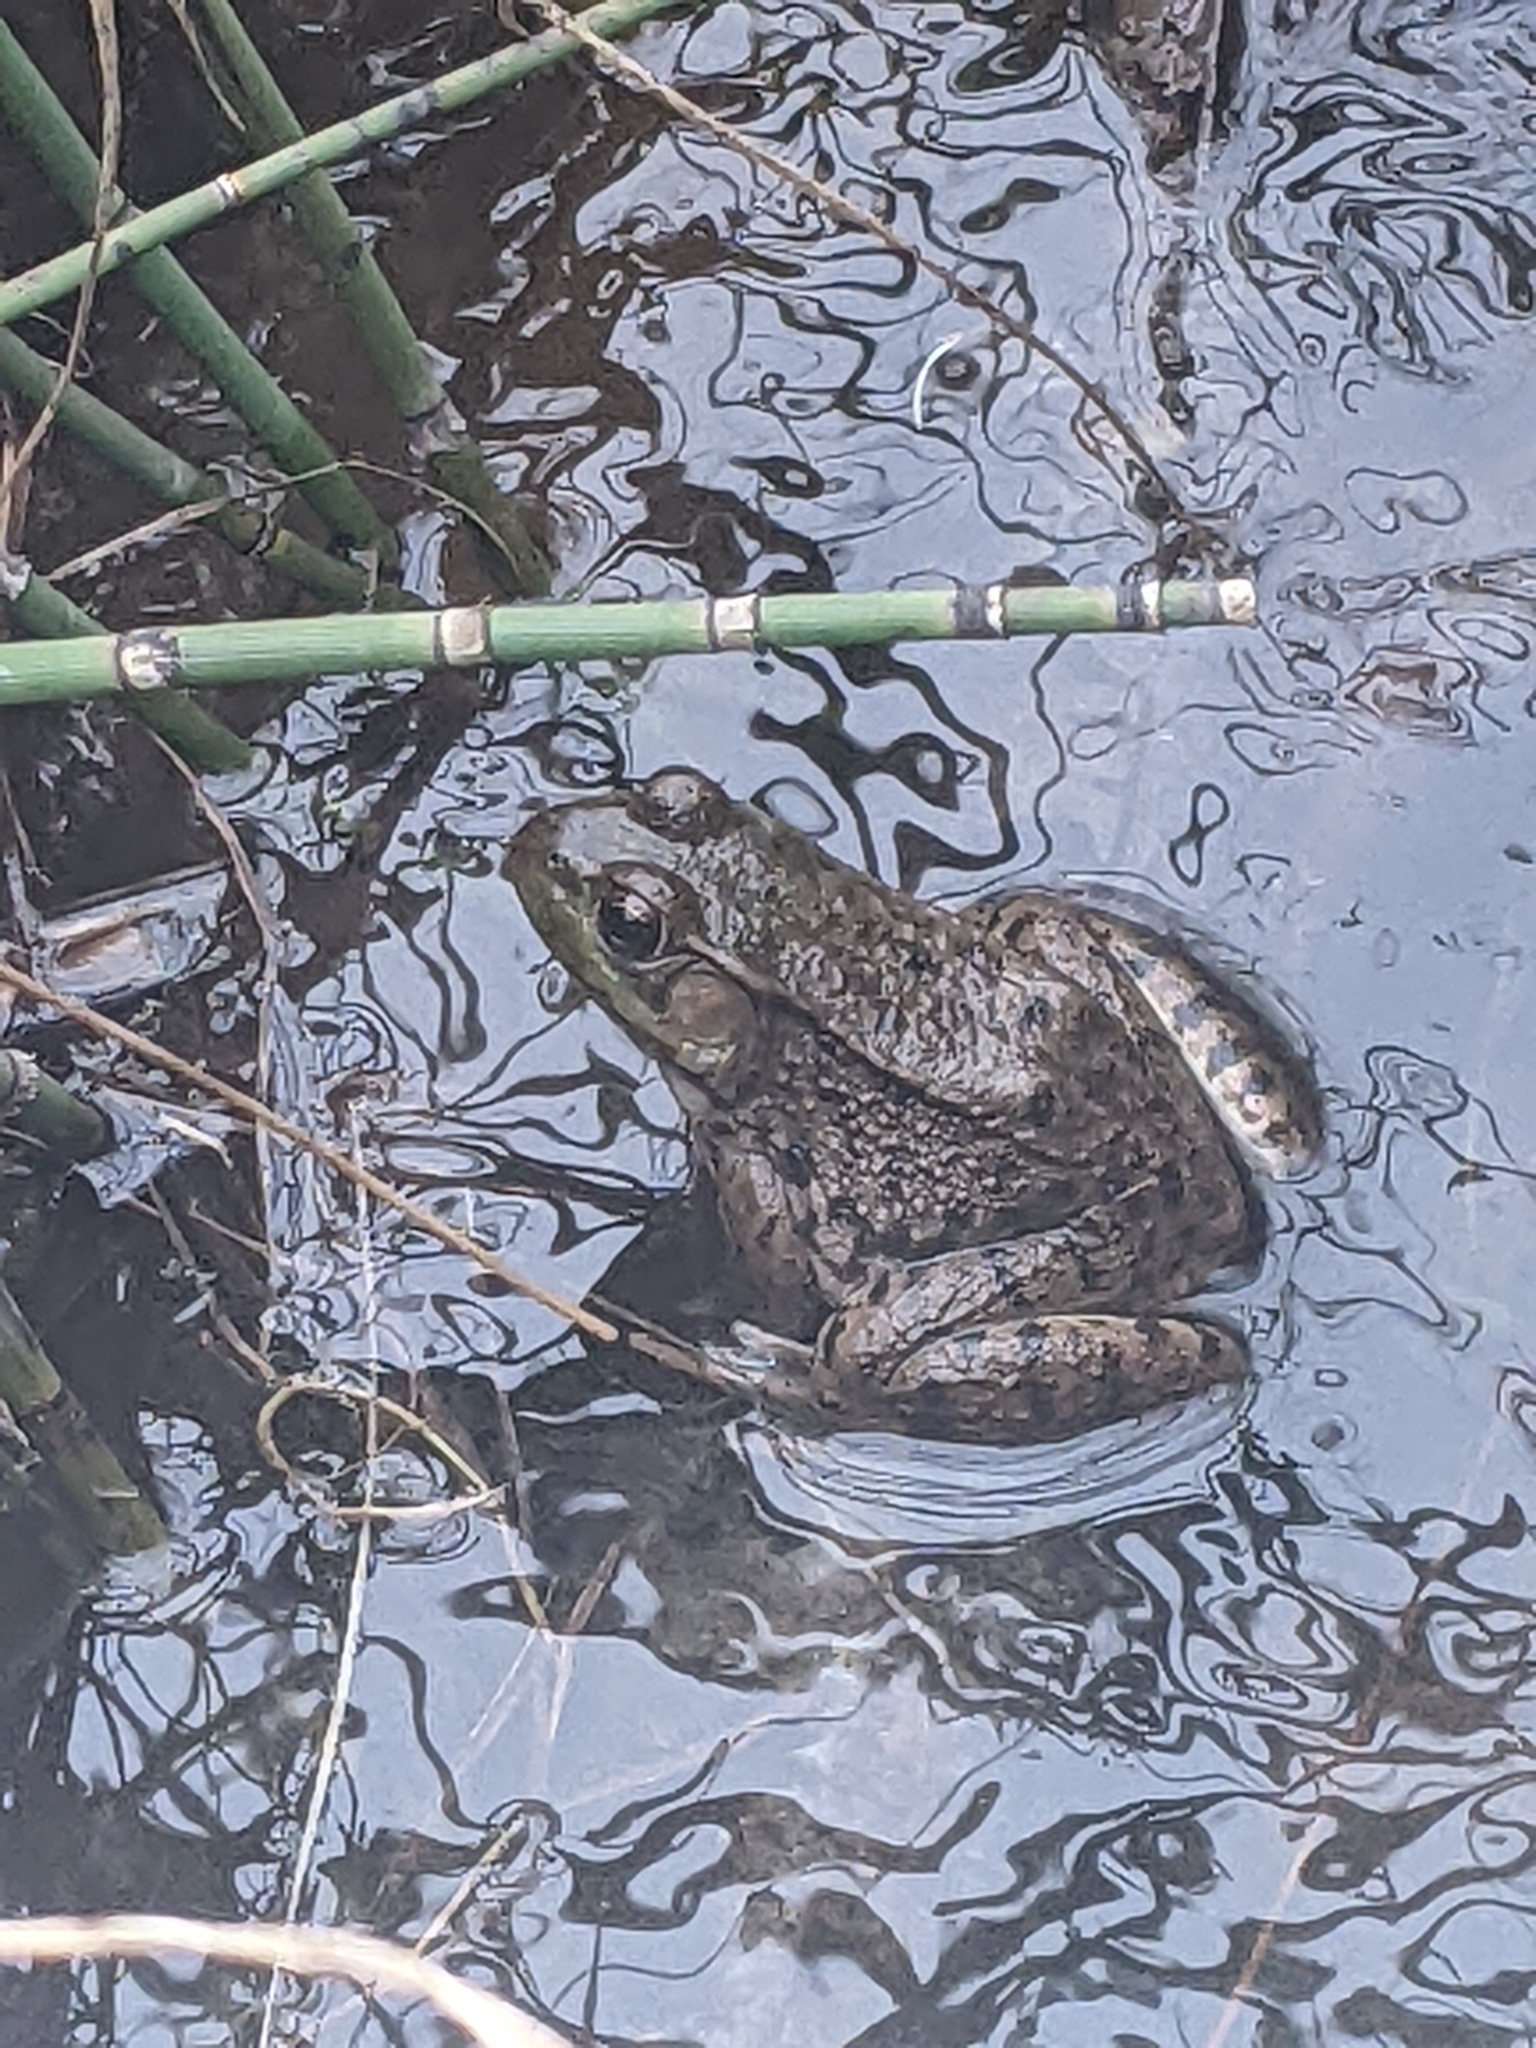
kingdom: Animalia
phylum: Chordata
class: Amphibia
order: Anura
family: Ranidae
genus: Lithobates
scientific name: Lithobates clamitans
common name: Green frog
